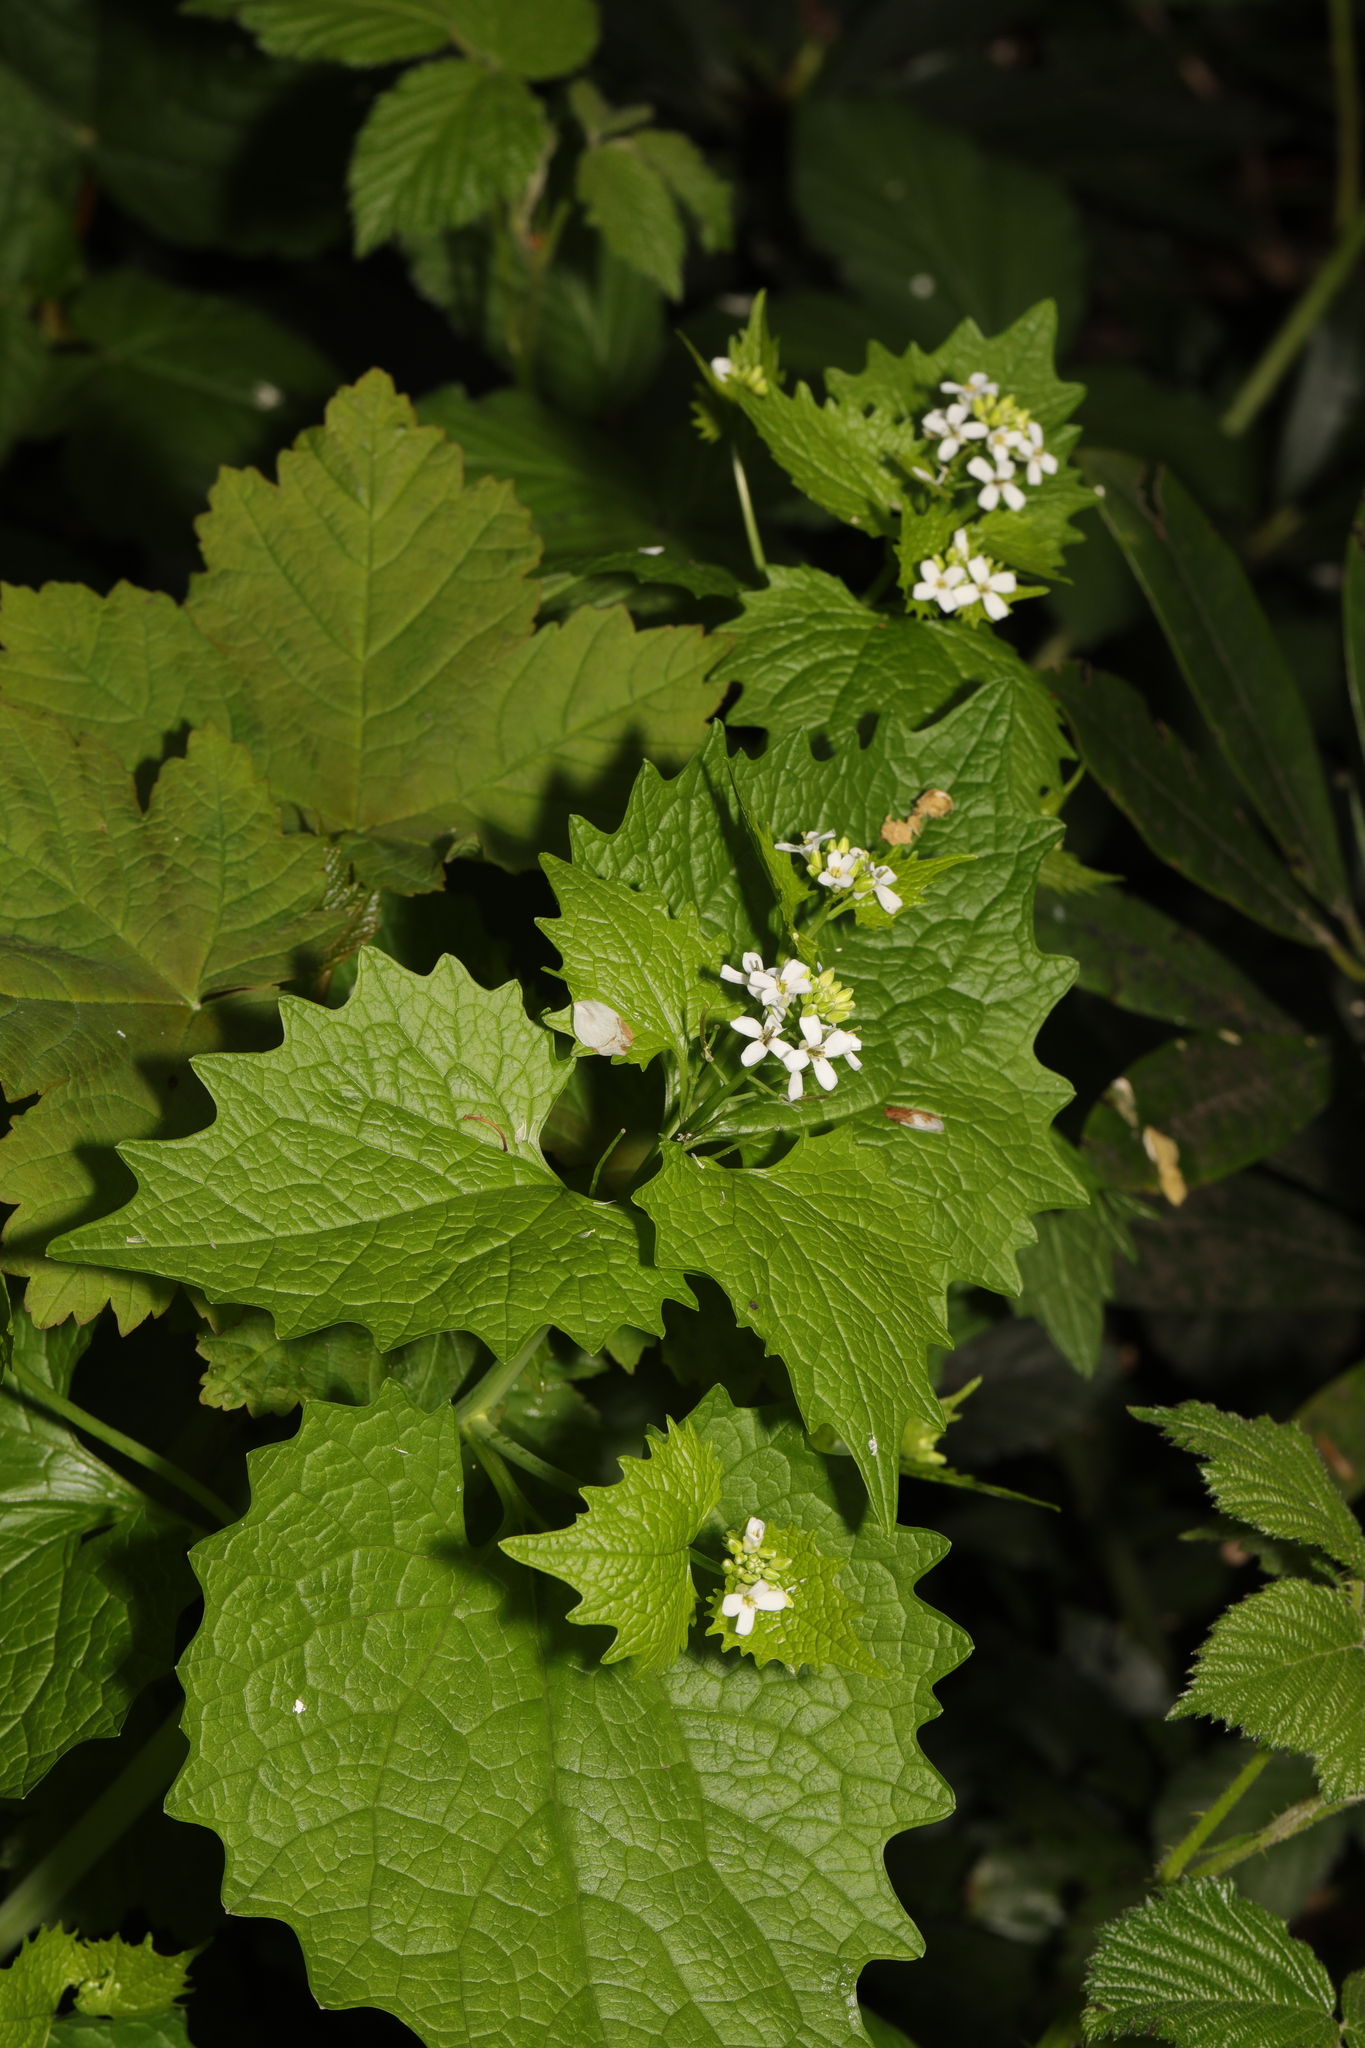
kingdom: Plantae
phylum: Tracheophyta
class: Magnoliopsida
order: Brassicales
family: Brassicaceae
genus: Alliaria
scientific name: Alliaria petiolata
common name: Garlic mustard
